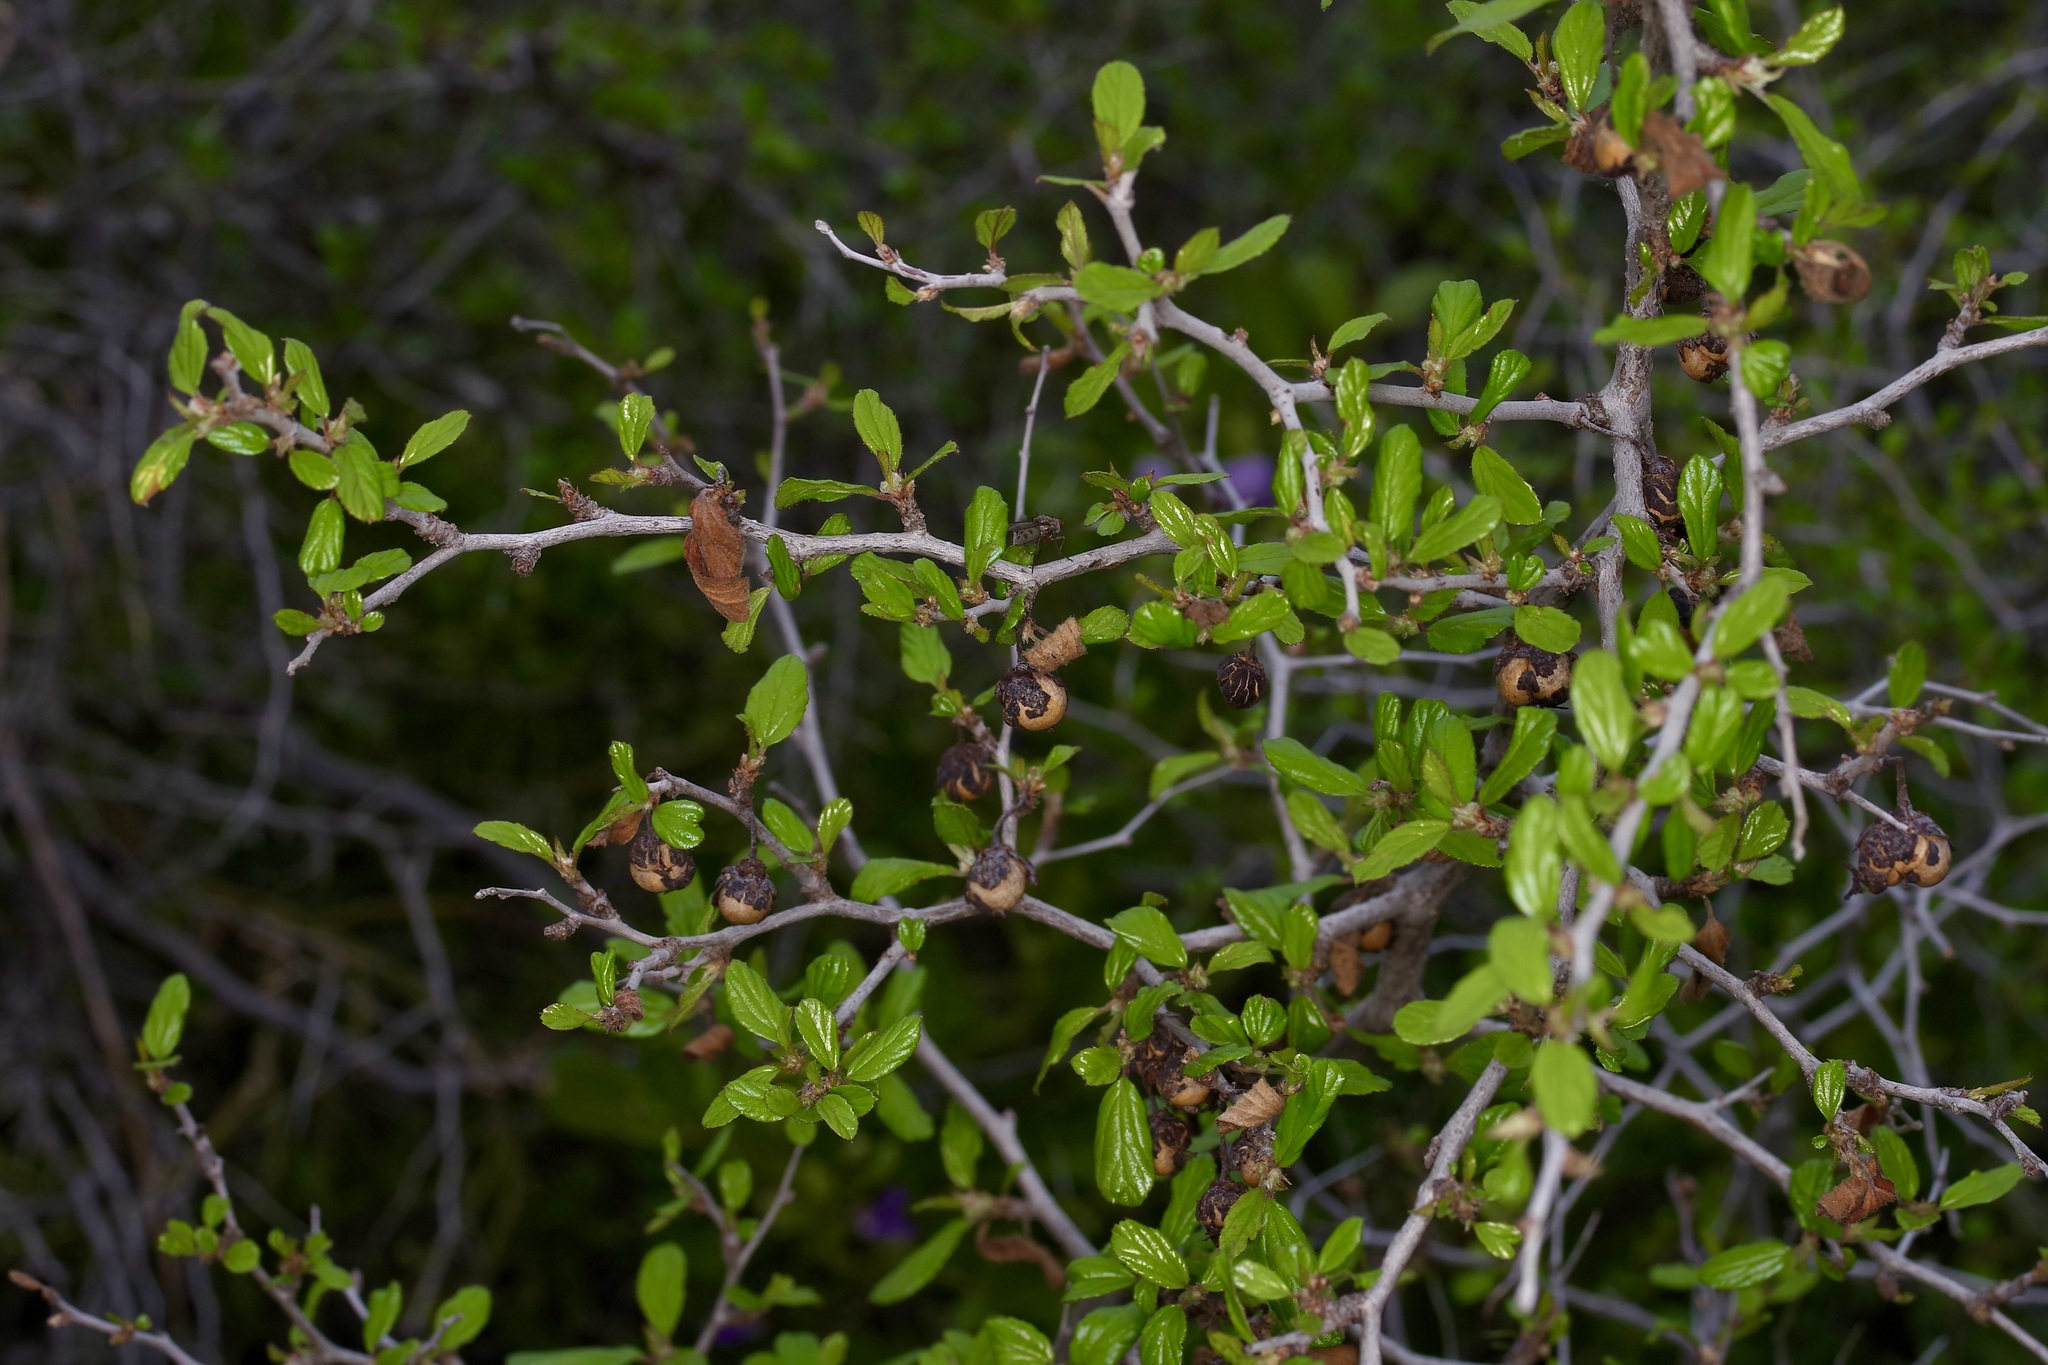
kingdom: Plantae
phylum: Tracheophyta
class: Magnoliopsida
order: Rosales
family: Rhamnaceae
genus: Colubrina
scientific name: Colubrina texensis
